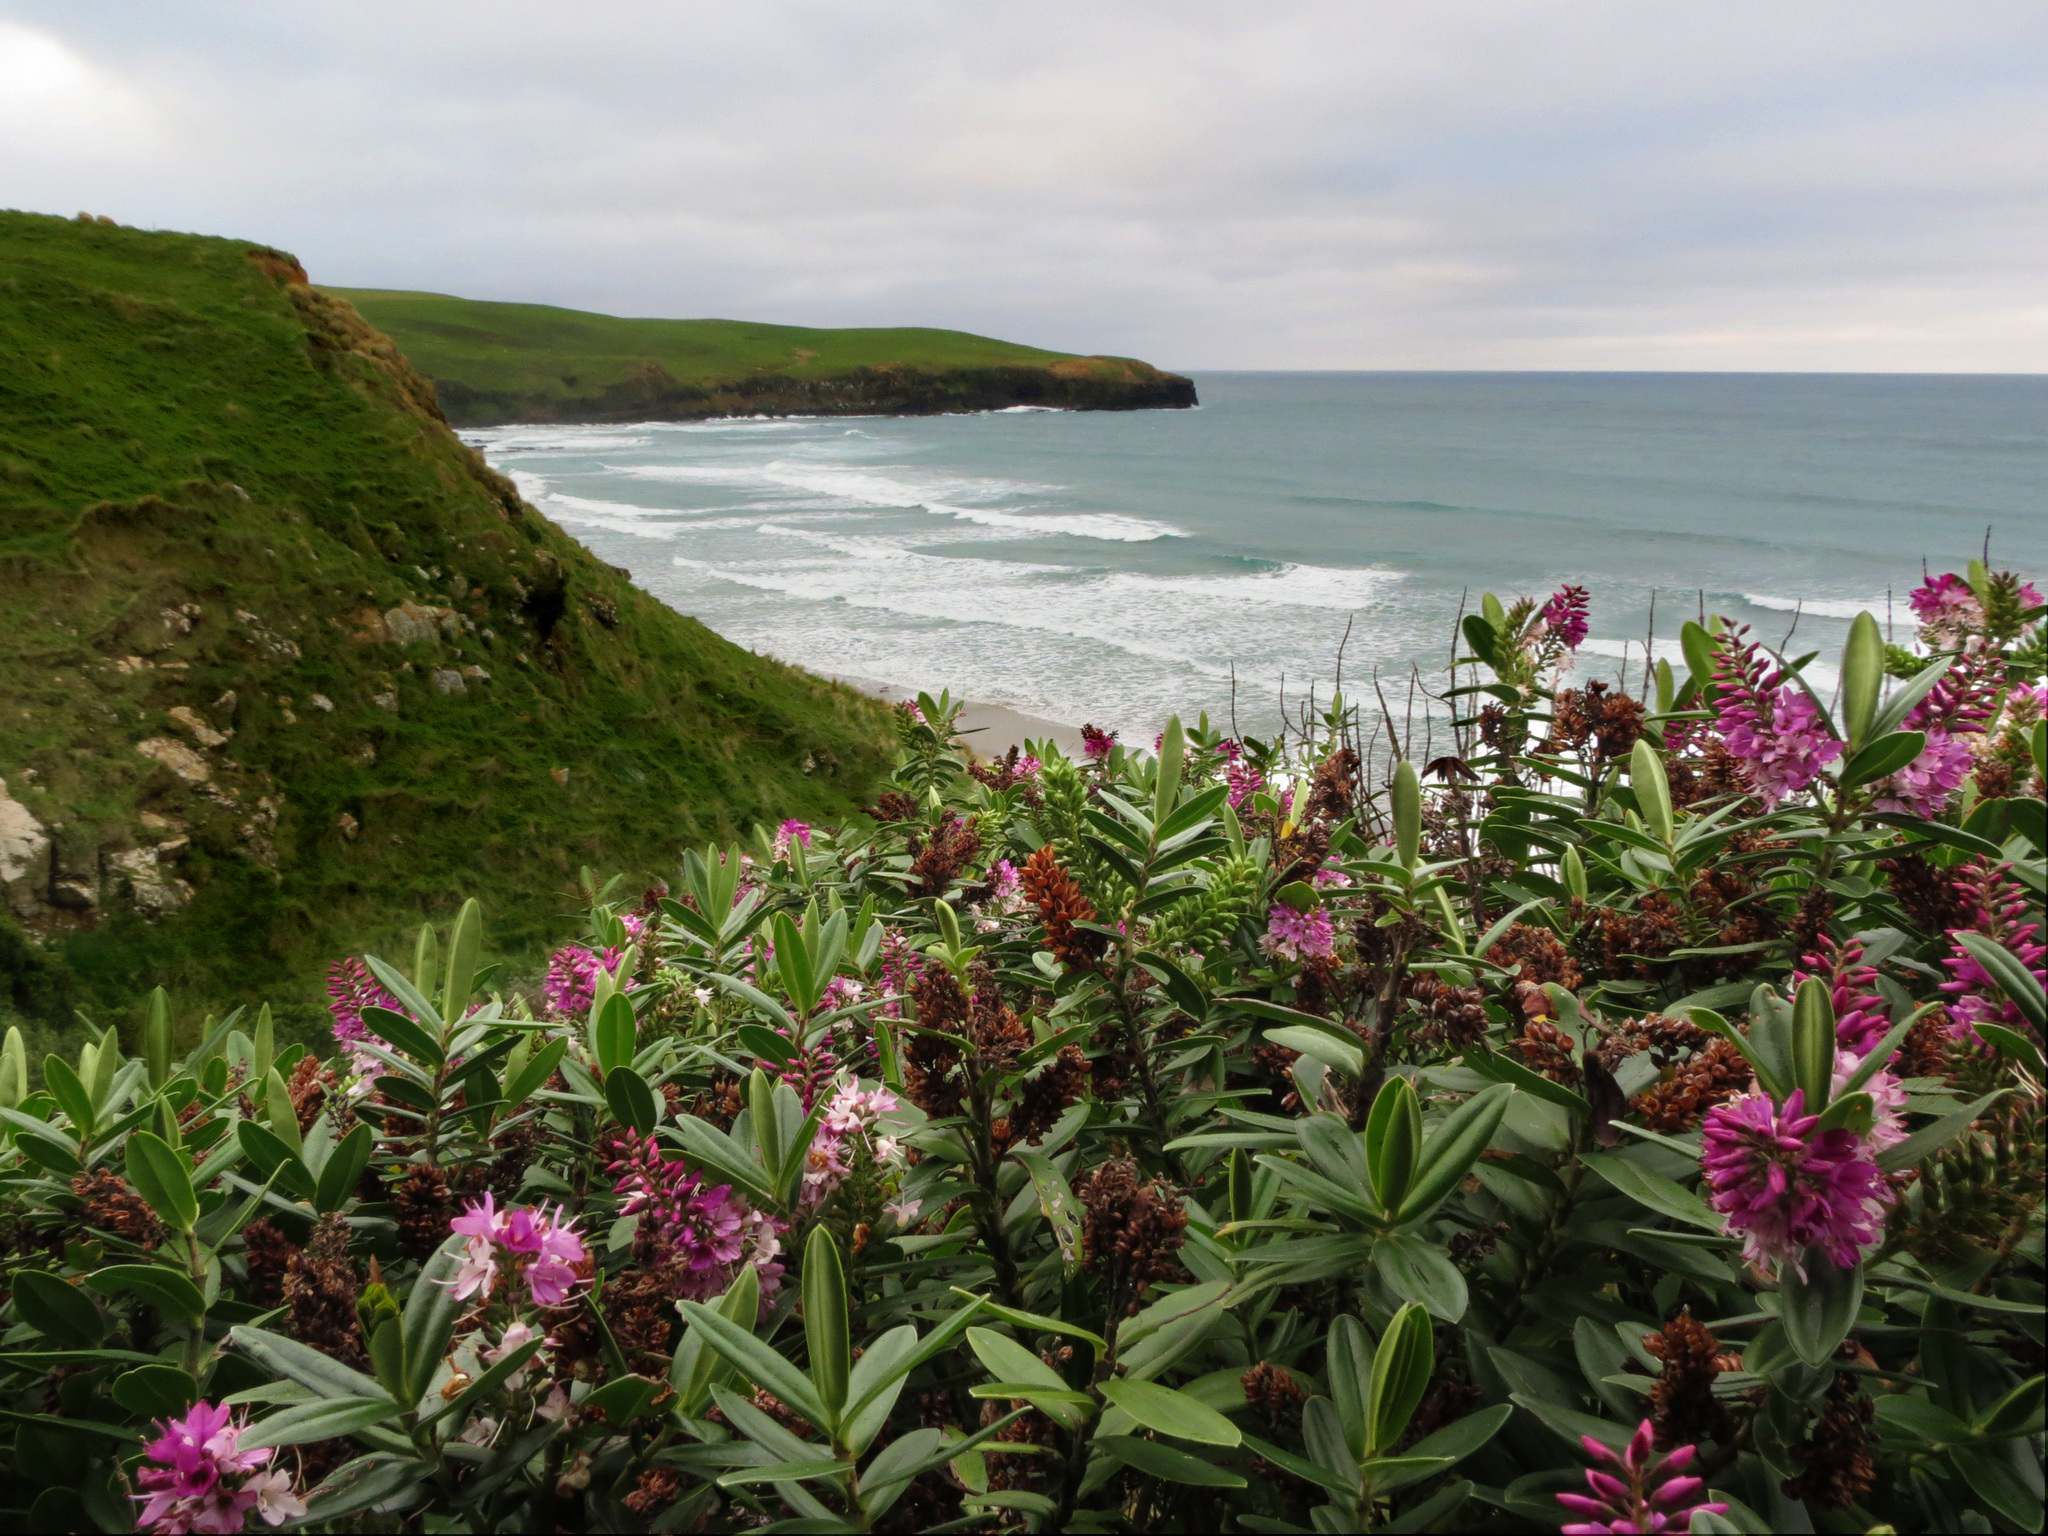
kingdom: Plantae
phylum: Tracheophyta
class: Magnoliopsida
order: Lamiales
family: Plantaginaceae
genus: Veronica
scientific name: Veronica speciosa
